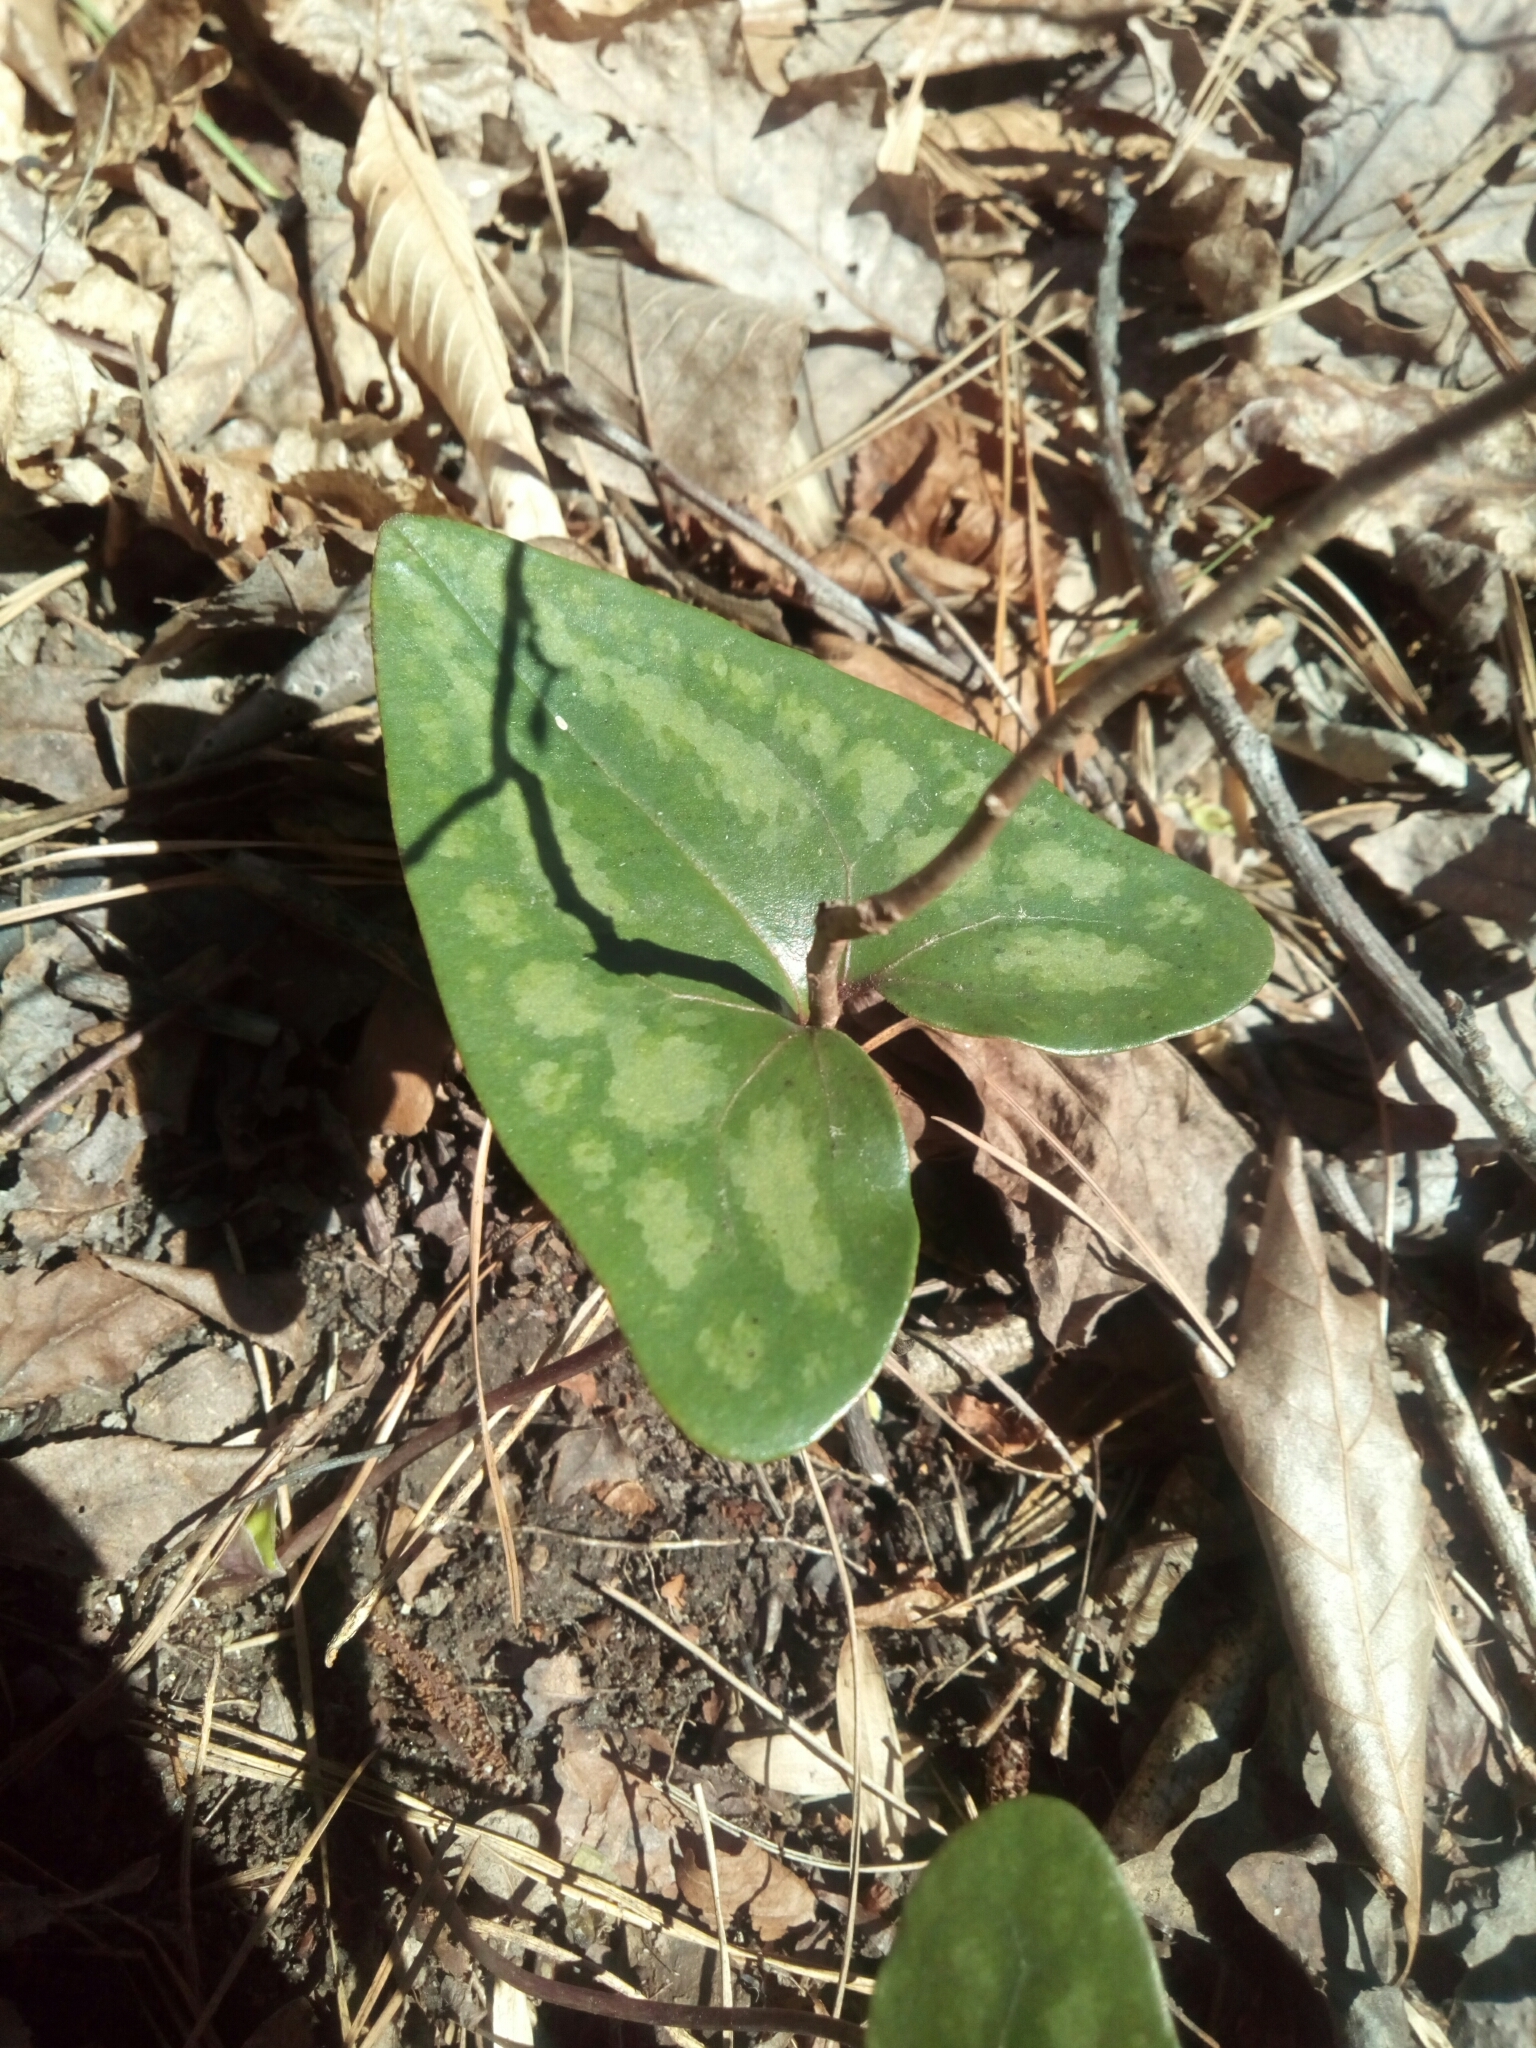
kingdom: Plantae
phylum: Tracheophyta
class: Magnoliopsida
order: Piperales
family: Aristolochiaceae
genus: Hexastylis
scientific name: Hexastylis arifolia
